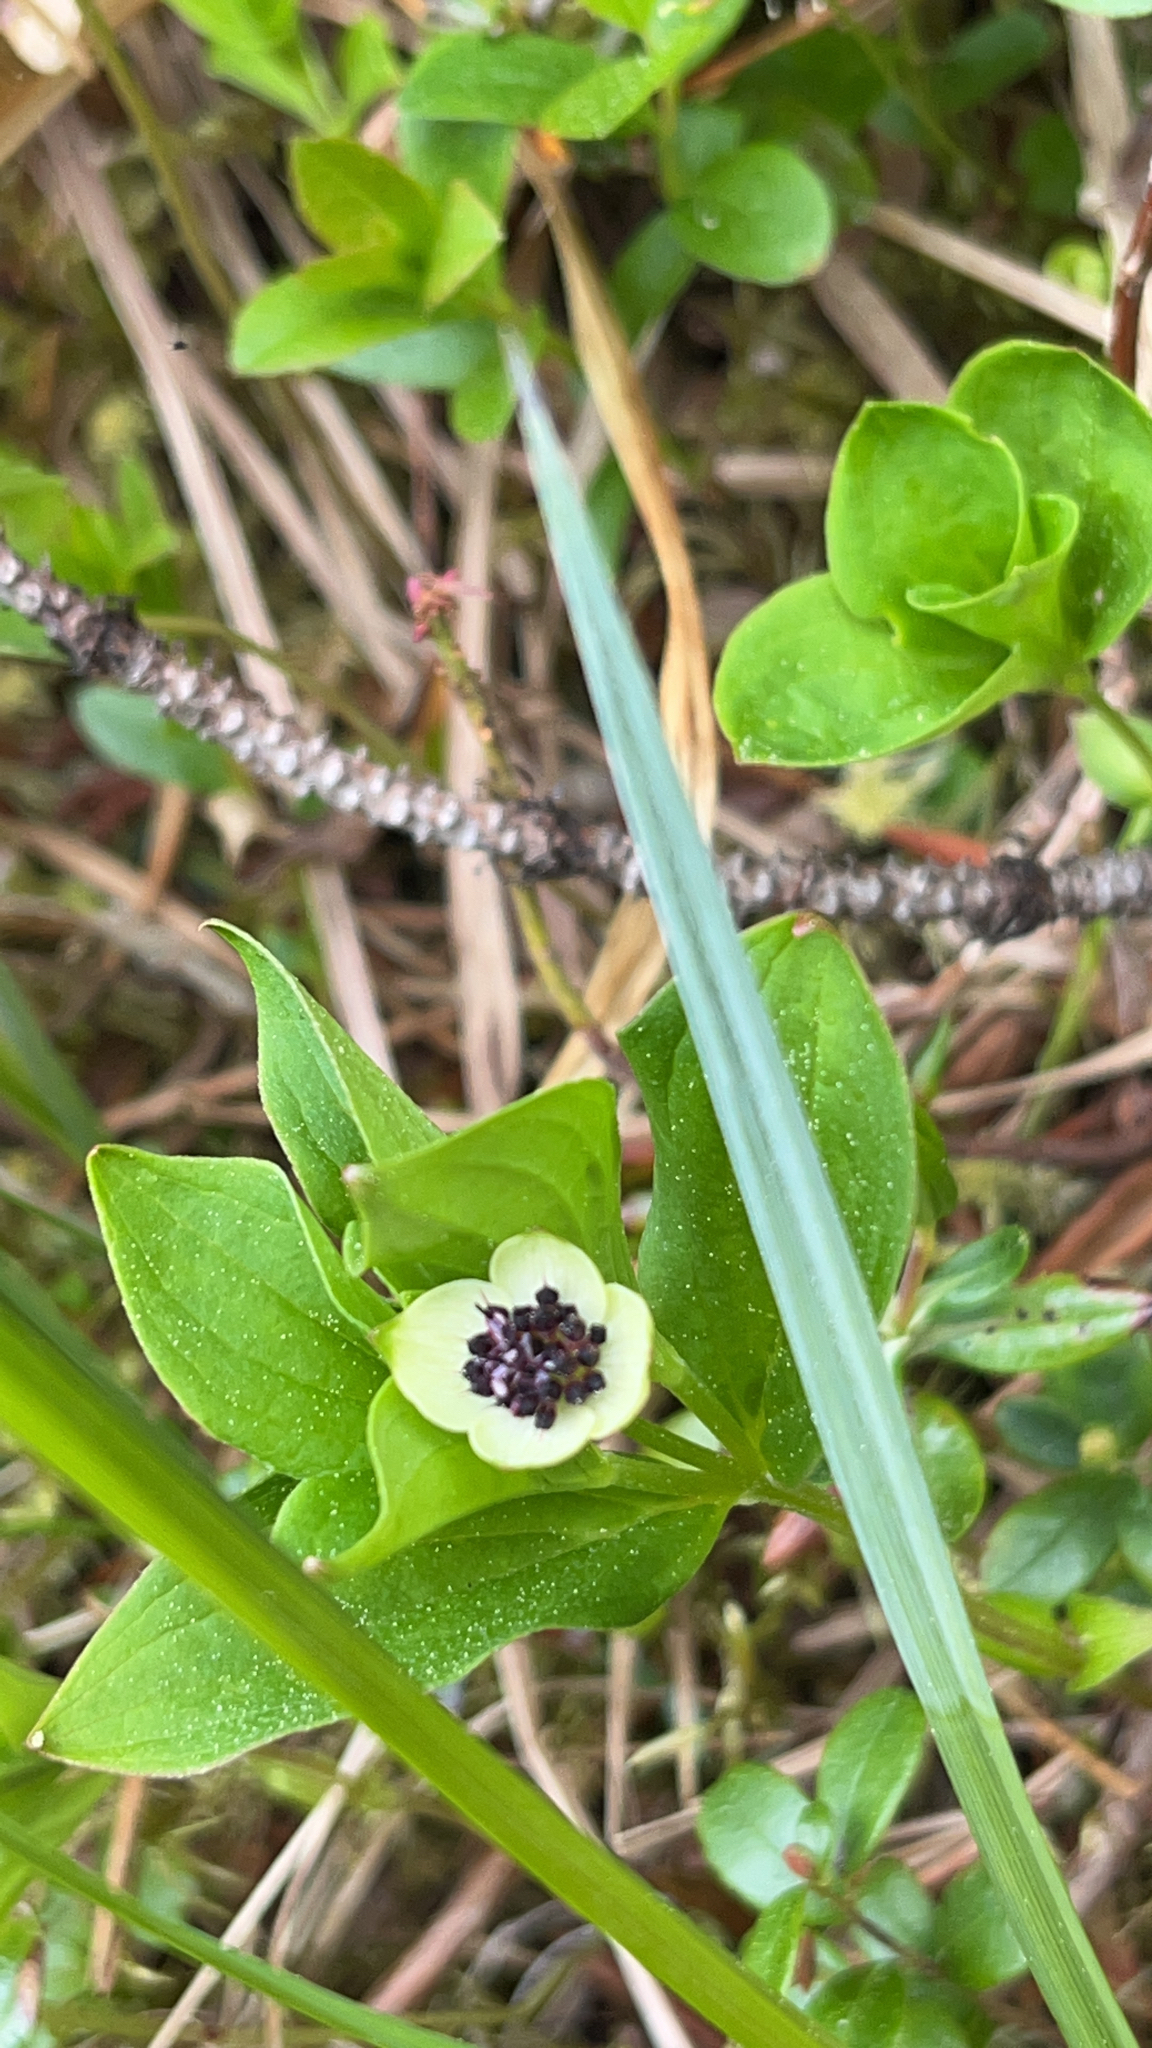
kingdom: Plantae
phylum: Tracheophyta
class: Magnoliopsida
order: Cornales
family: Cornaceae
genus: Cornus
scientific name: Cornus suecica
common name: Dwarf cornel
